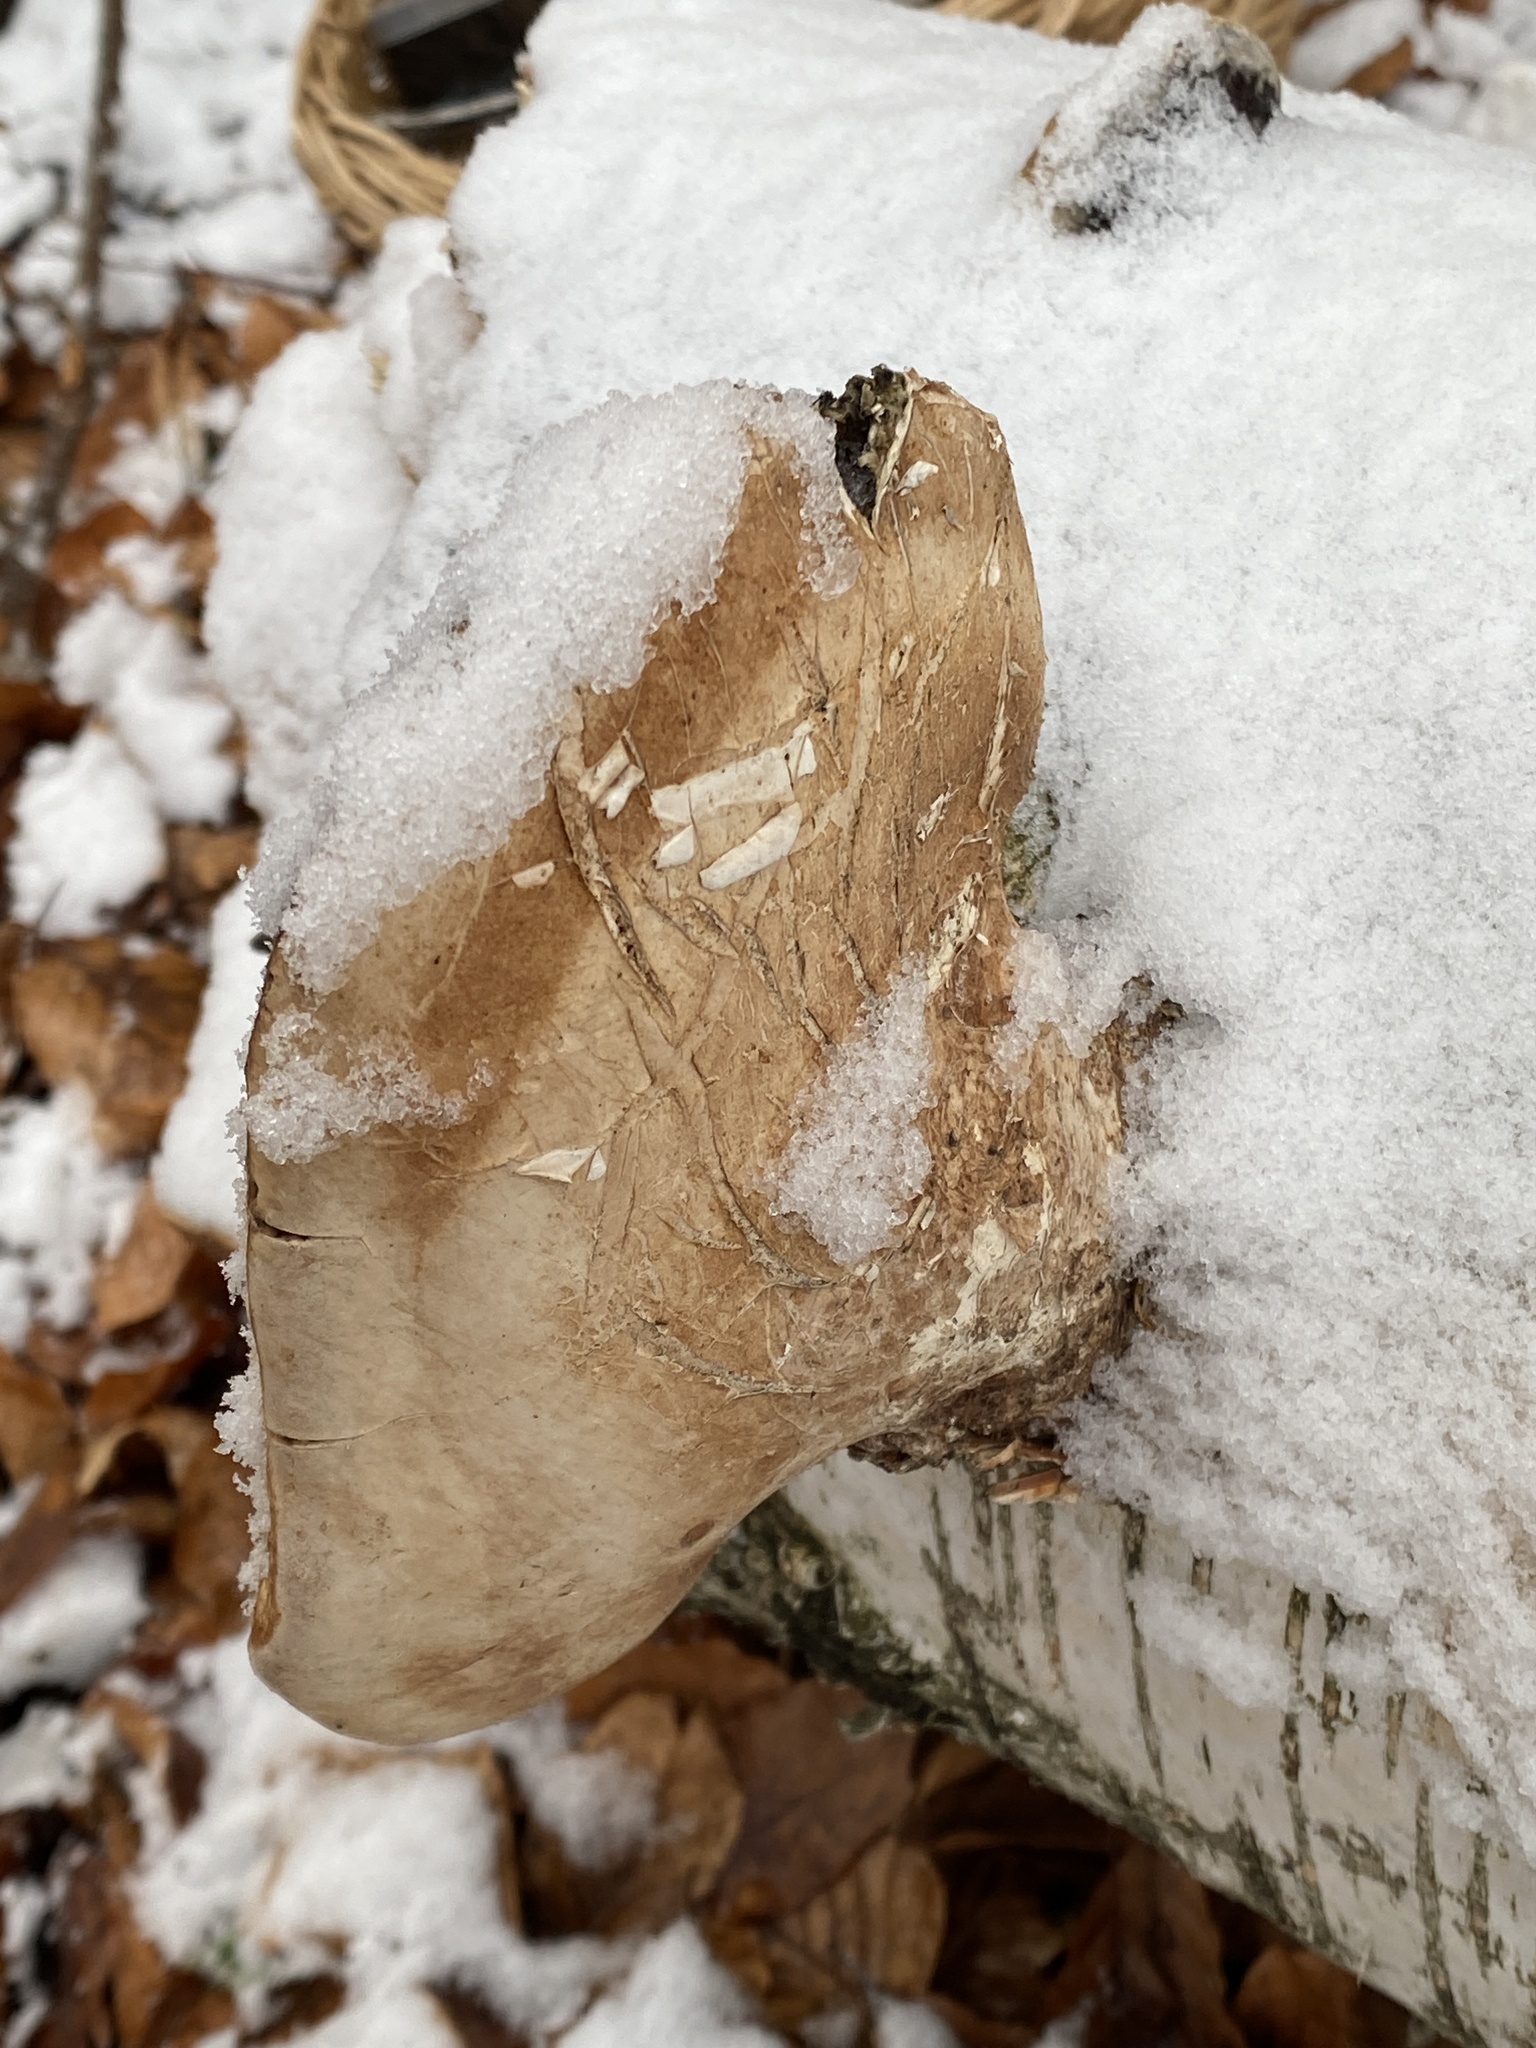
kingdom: Fungi
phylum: Basidiomycota
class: Agaricomycetes
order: Polyporales
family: Fomitopsidaceae
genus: Fomitopsis
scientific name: Fomitopsis betulina
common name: Birch polypore
